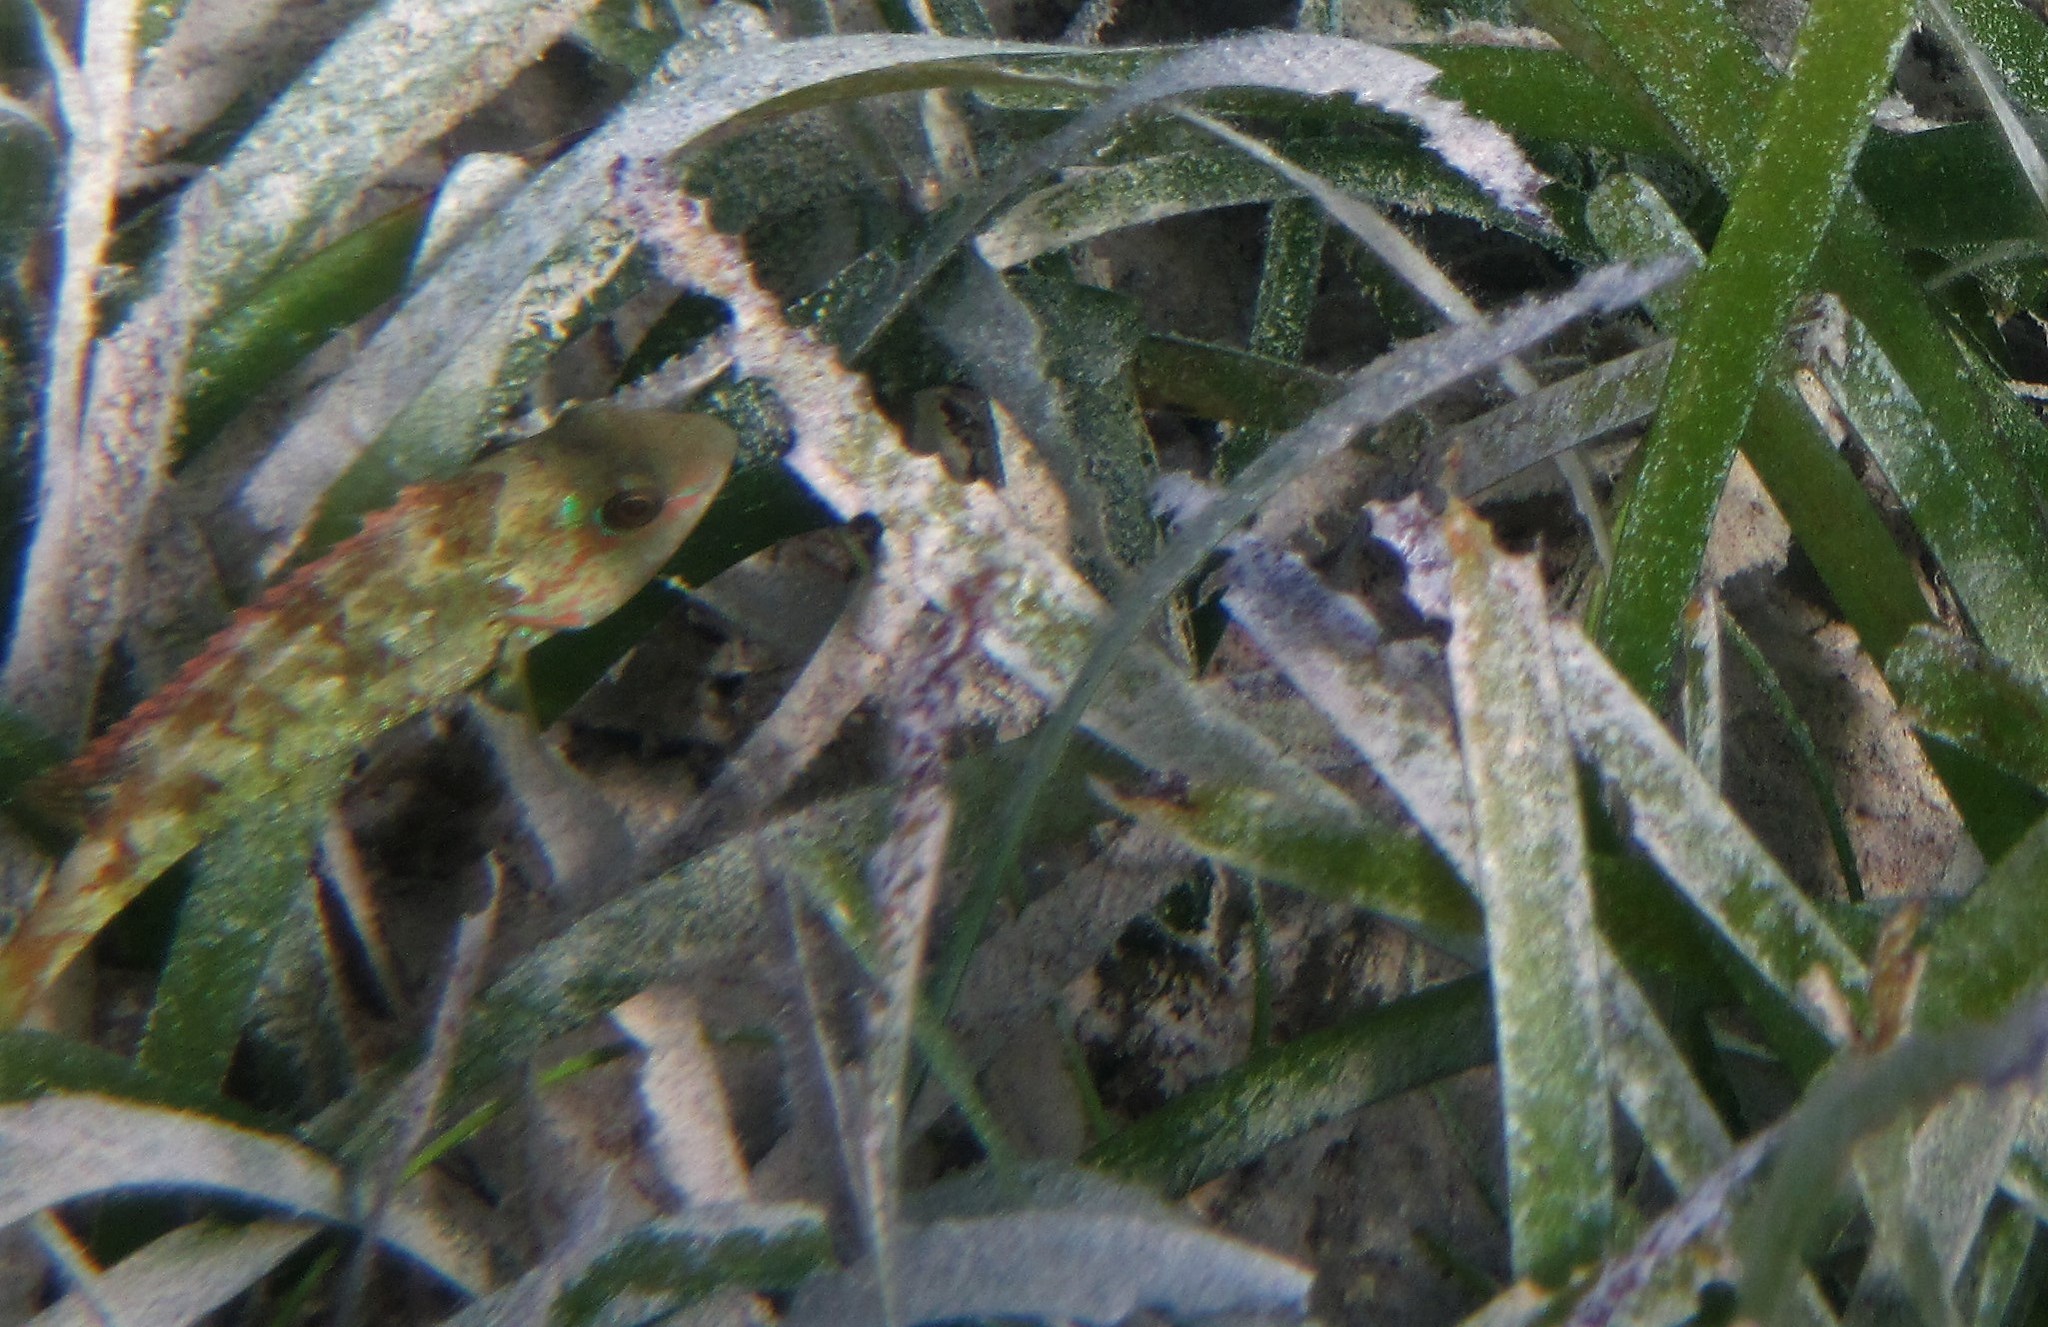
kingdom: Animalia
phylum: Chordata
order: Perciformes
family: Scaridae
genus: Sparisoma
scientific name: Sparisoma radians
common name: Bucktooth parrotfish
